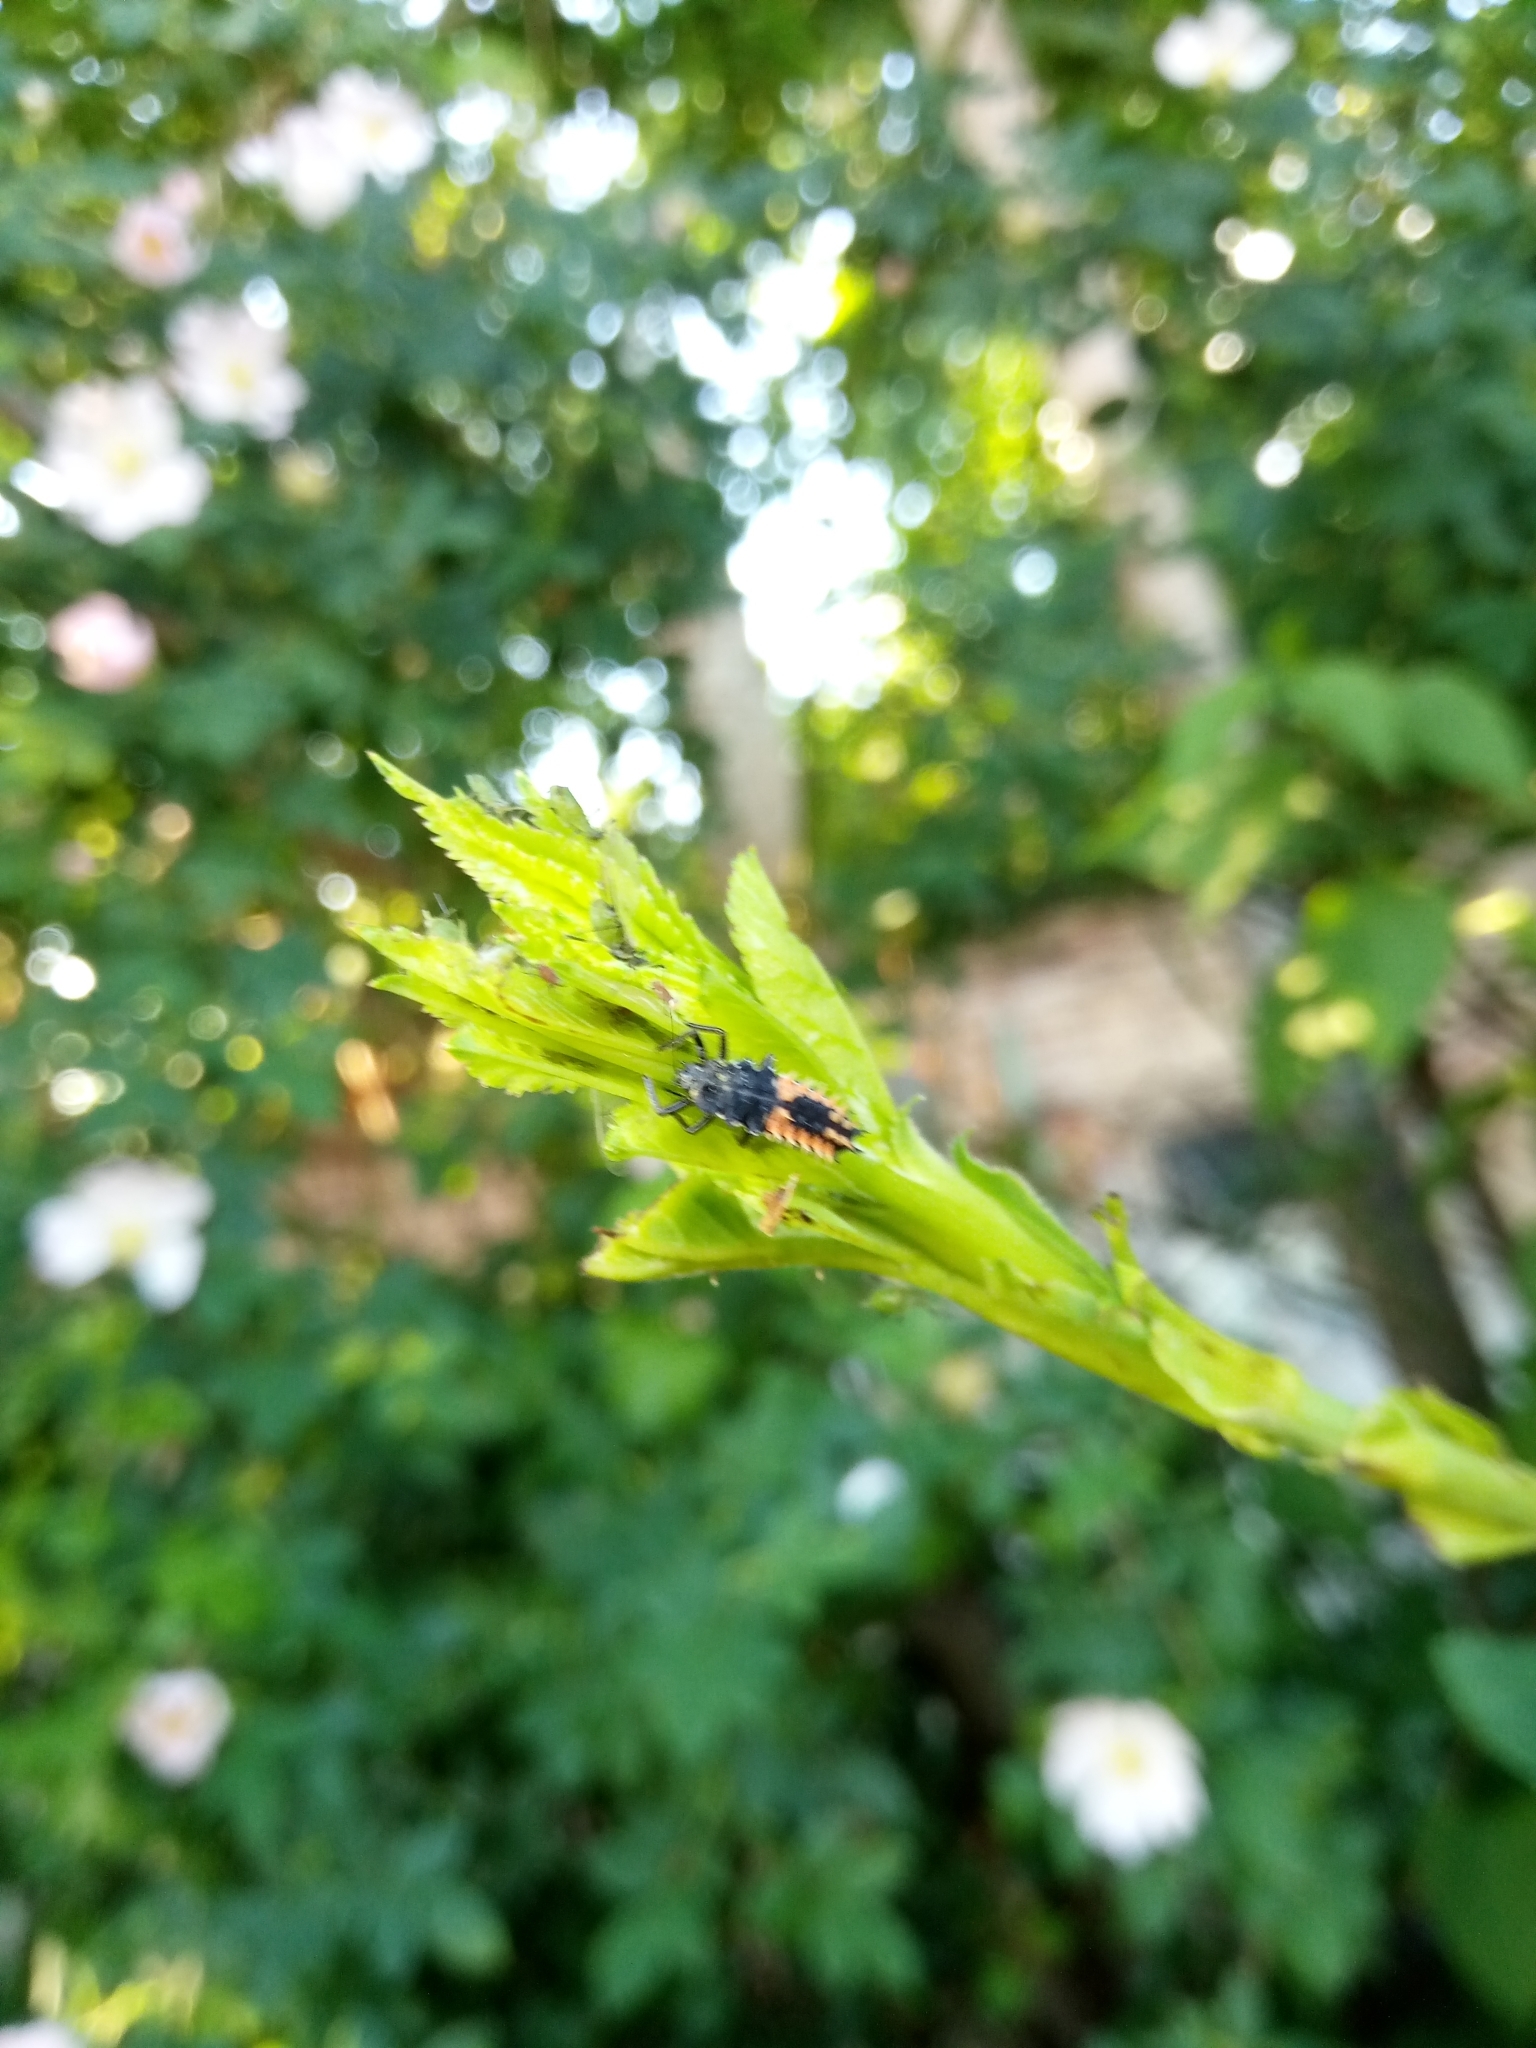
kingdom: Animalia
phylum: Arthropoda
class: Insecta
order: Coleoptera
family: Coccinellidae
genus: Harmonia
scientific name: Harmonia axyridis
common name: Harlequin ladybird
